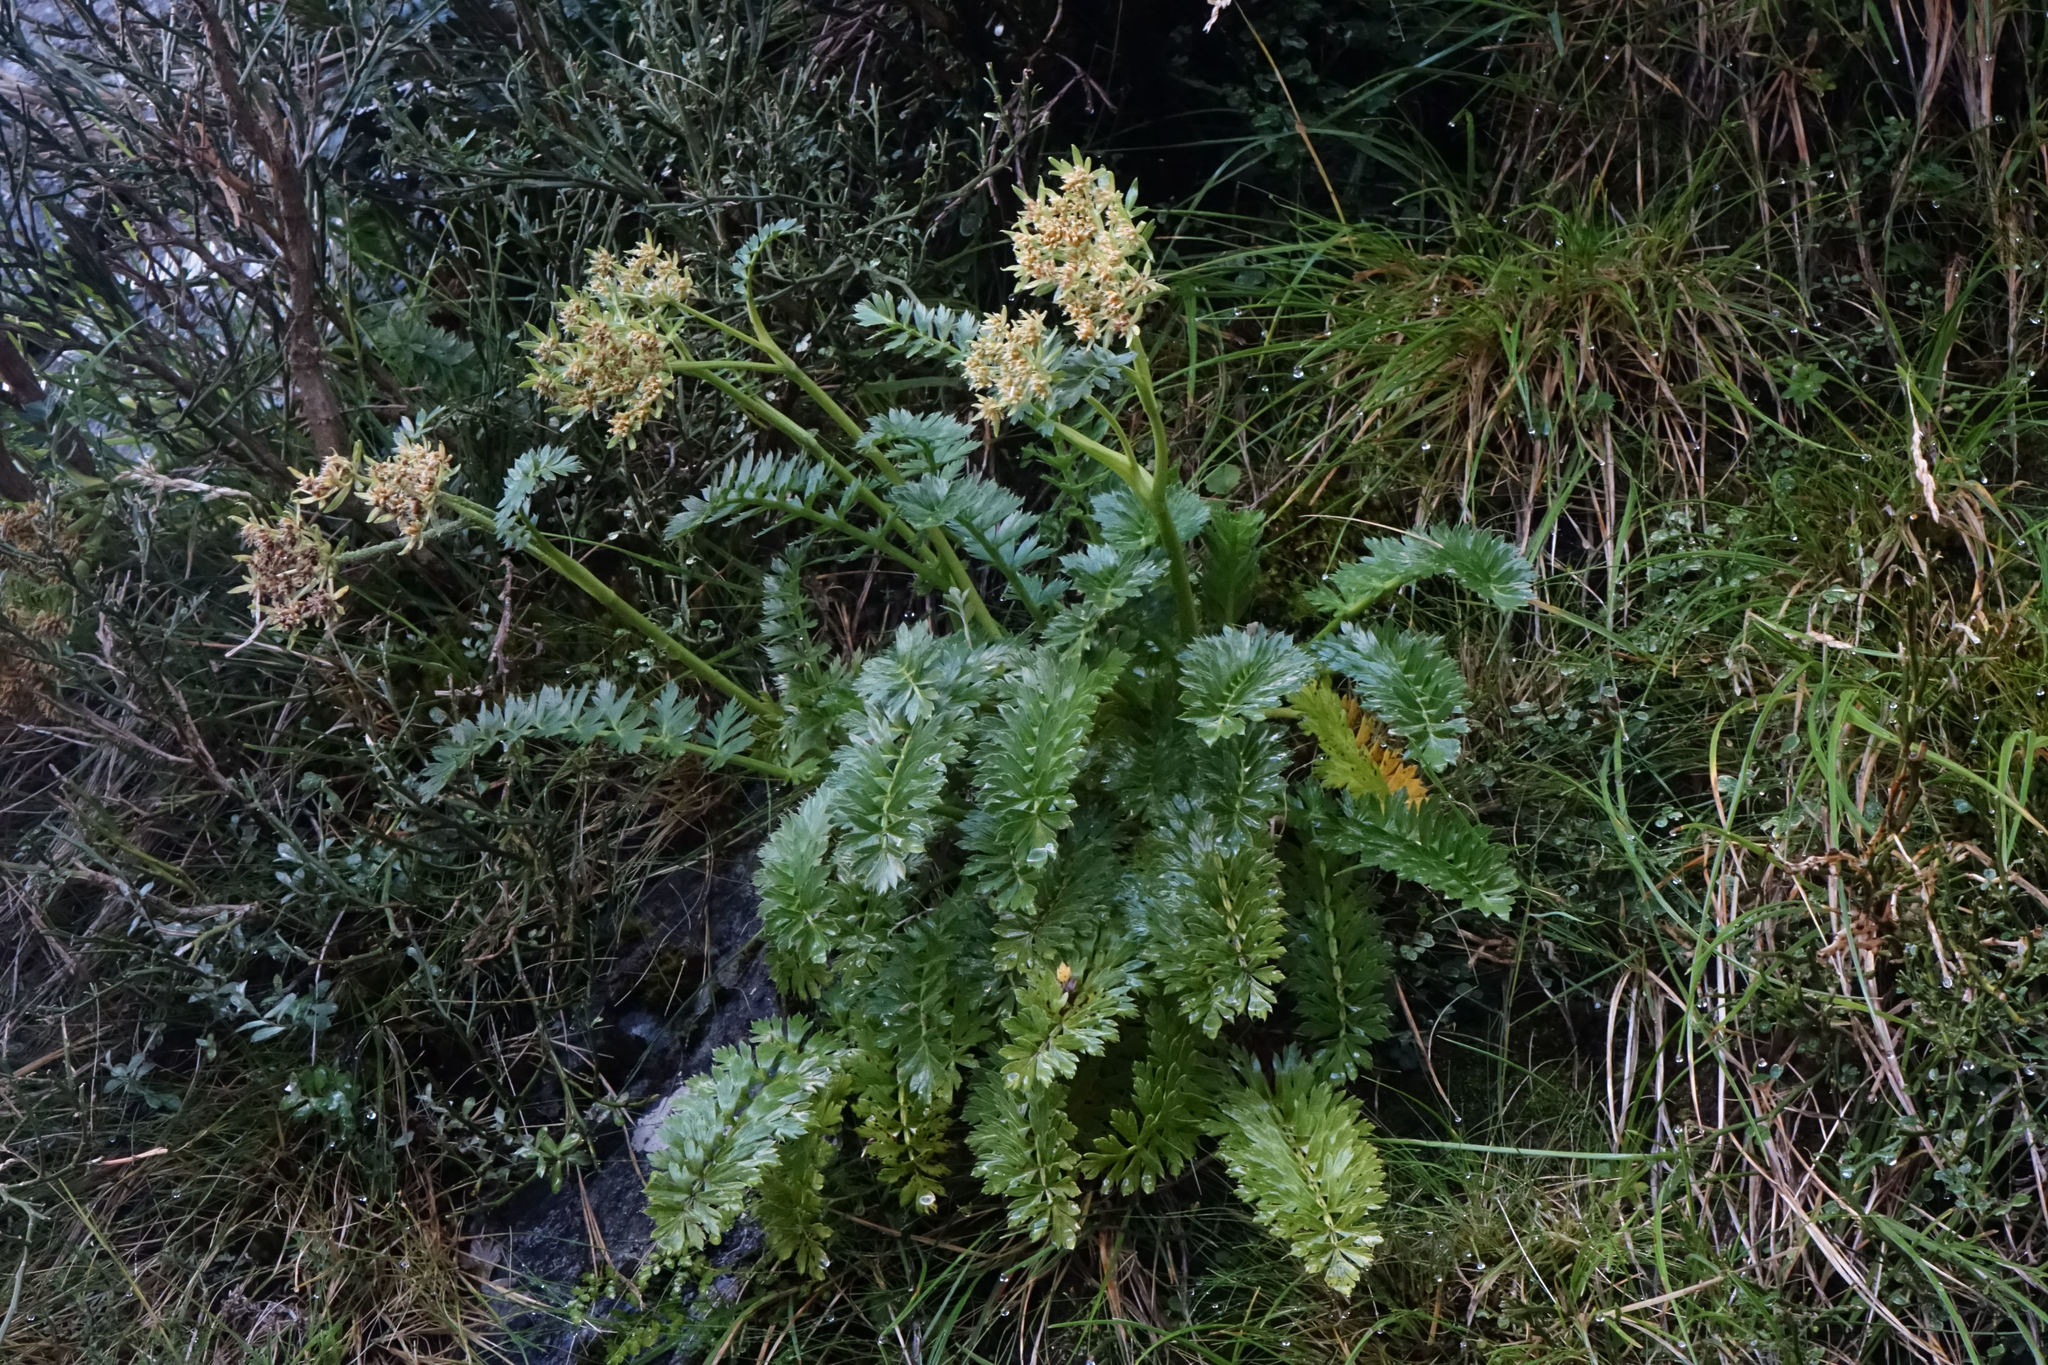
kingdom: Plantae
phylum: Tracheophyta
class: Magnoliopsida
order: Apiales
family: Apiaceae
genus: Anisotome
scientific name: Anisotome pilifera
